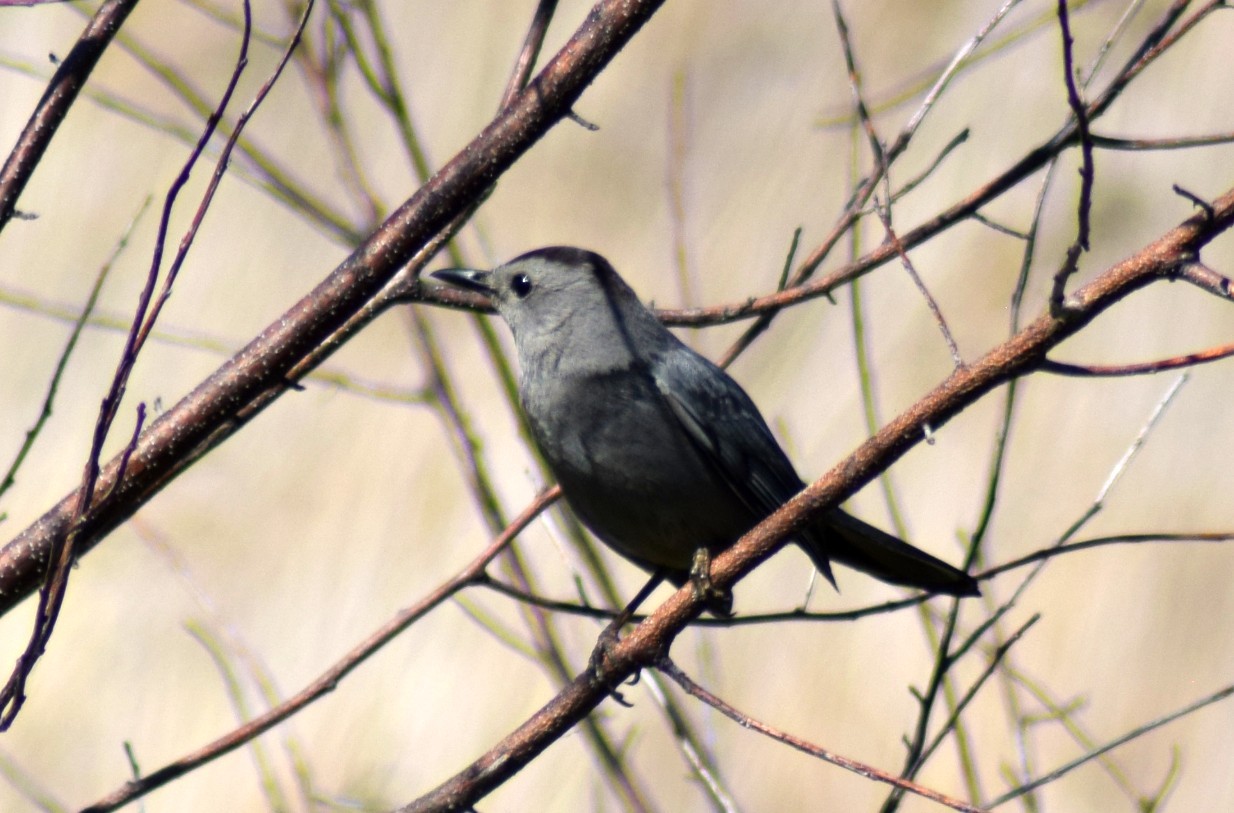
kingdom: Animalia
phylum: Chordata
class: Aves
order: Passeriformes
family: Mimidae
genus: Dumetella
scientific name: Dumetella carolinensis
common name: Gray catbird
